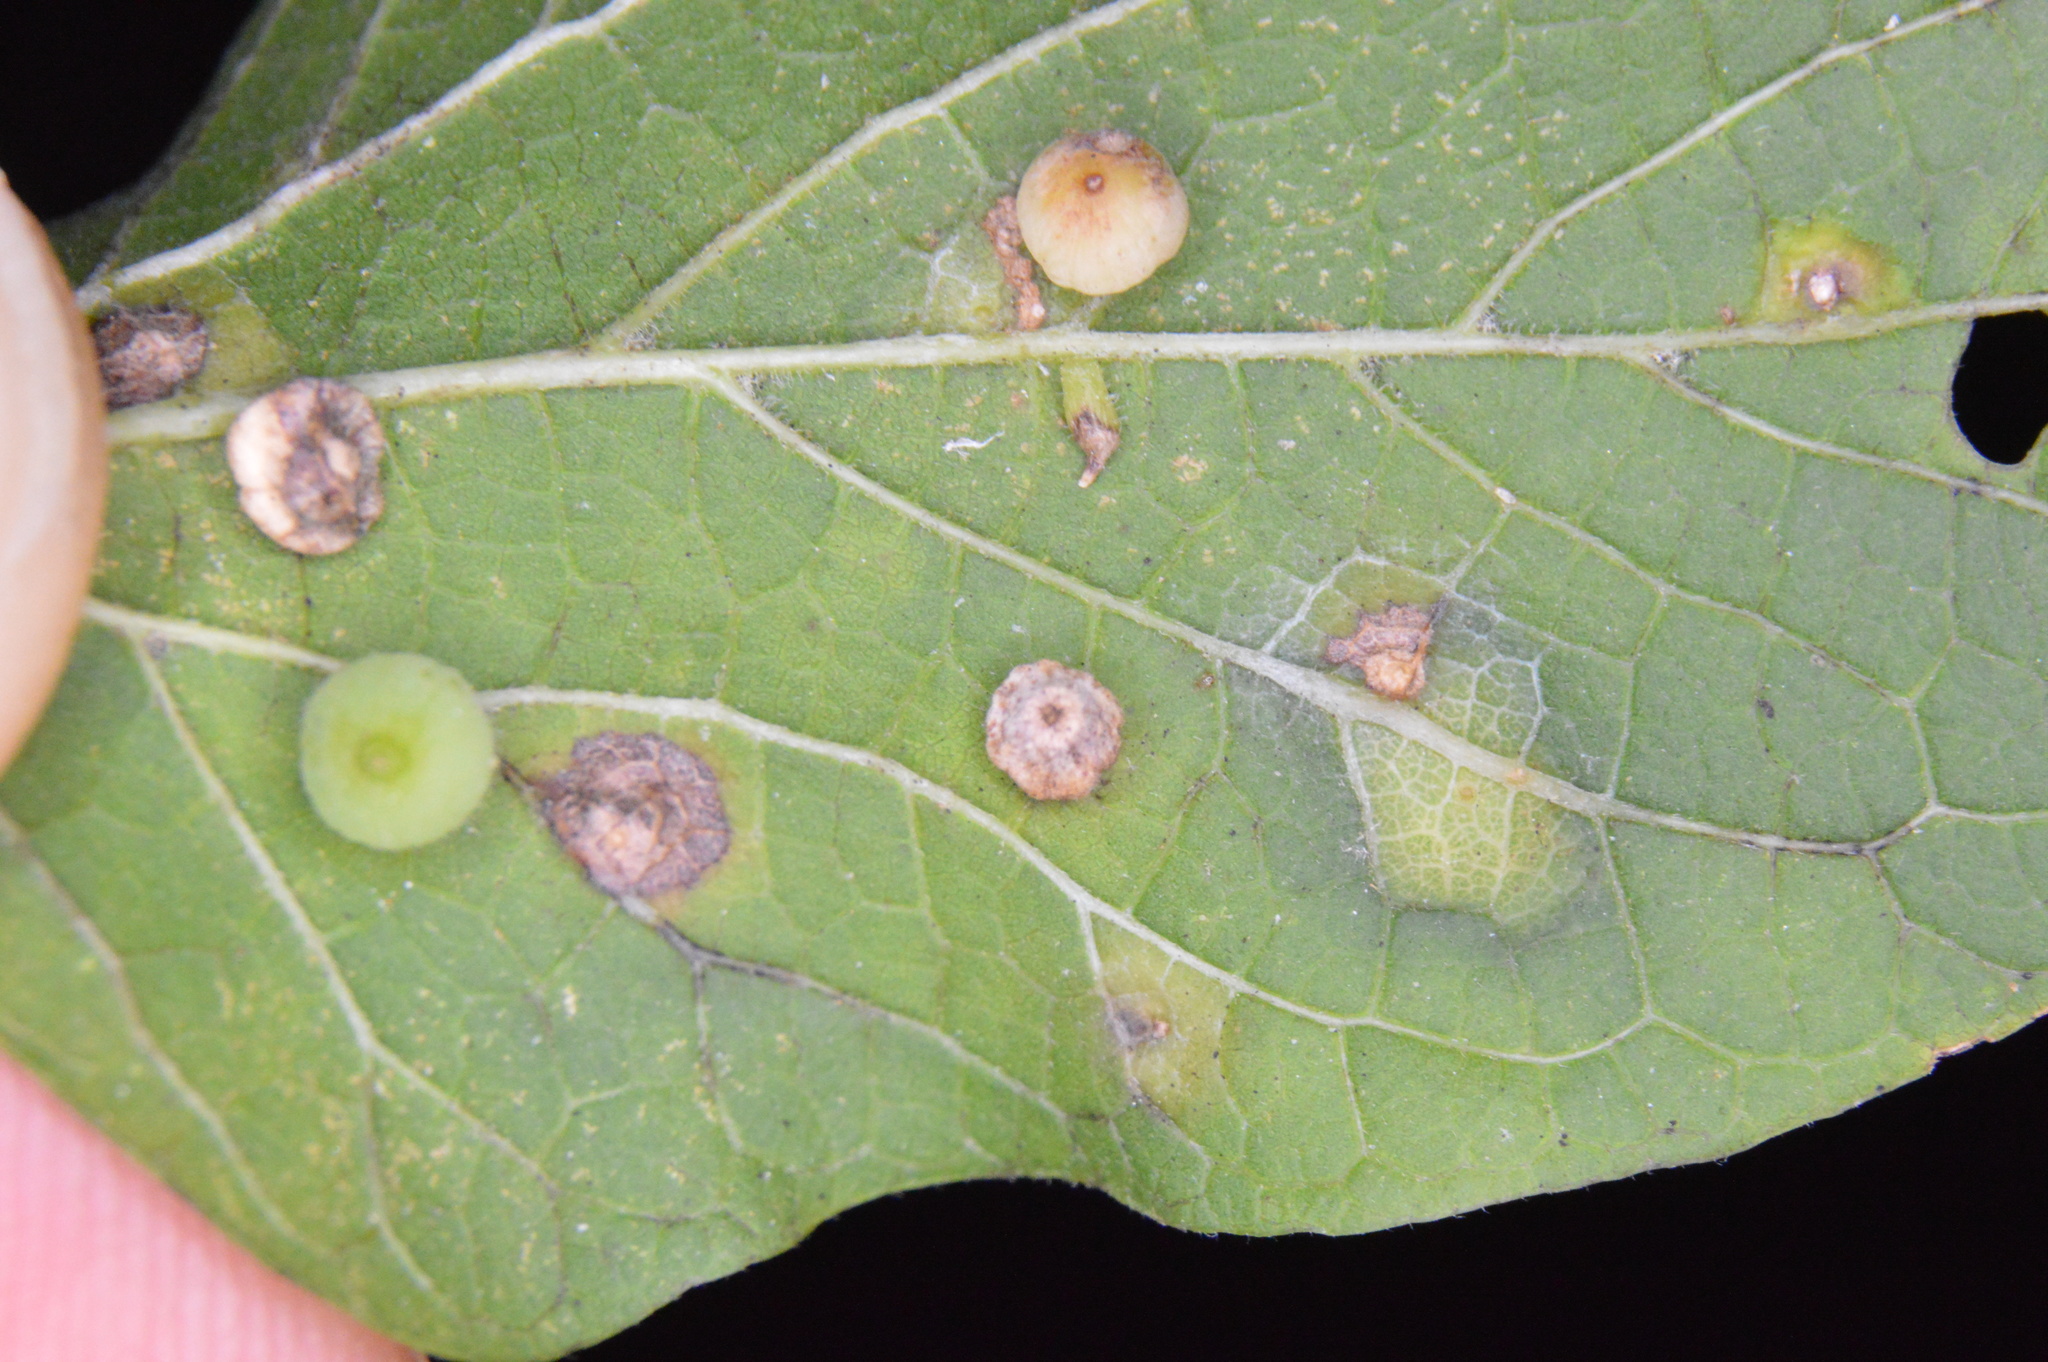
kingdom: Animalia
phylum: Arthropoda
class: Insecta
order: Diptera
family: Cecidomyiidae
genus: Celticecis
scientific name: Celticecis globosa
